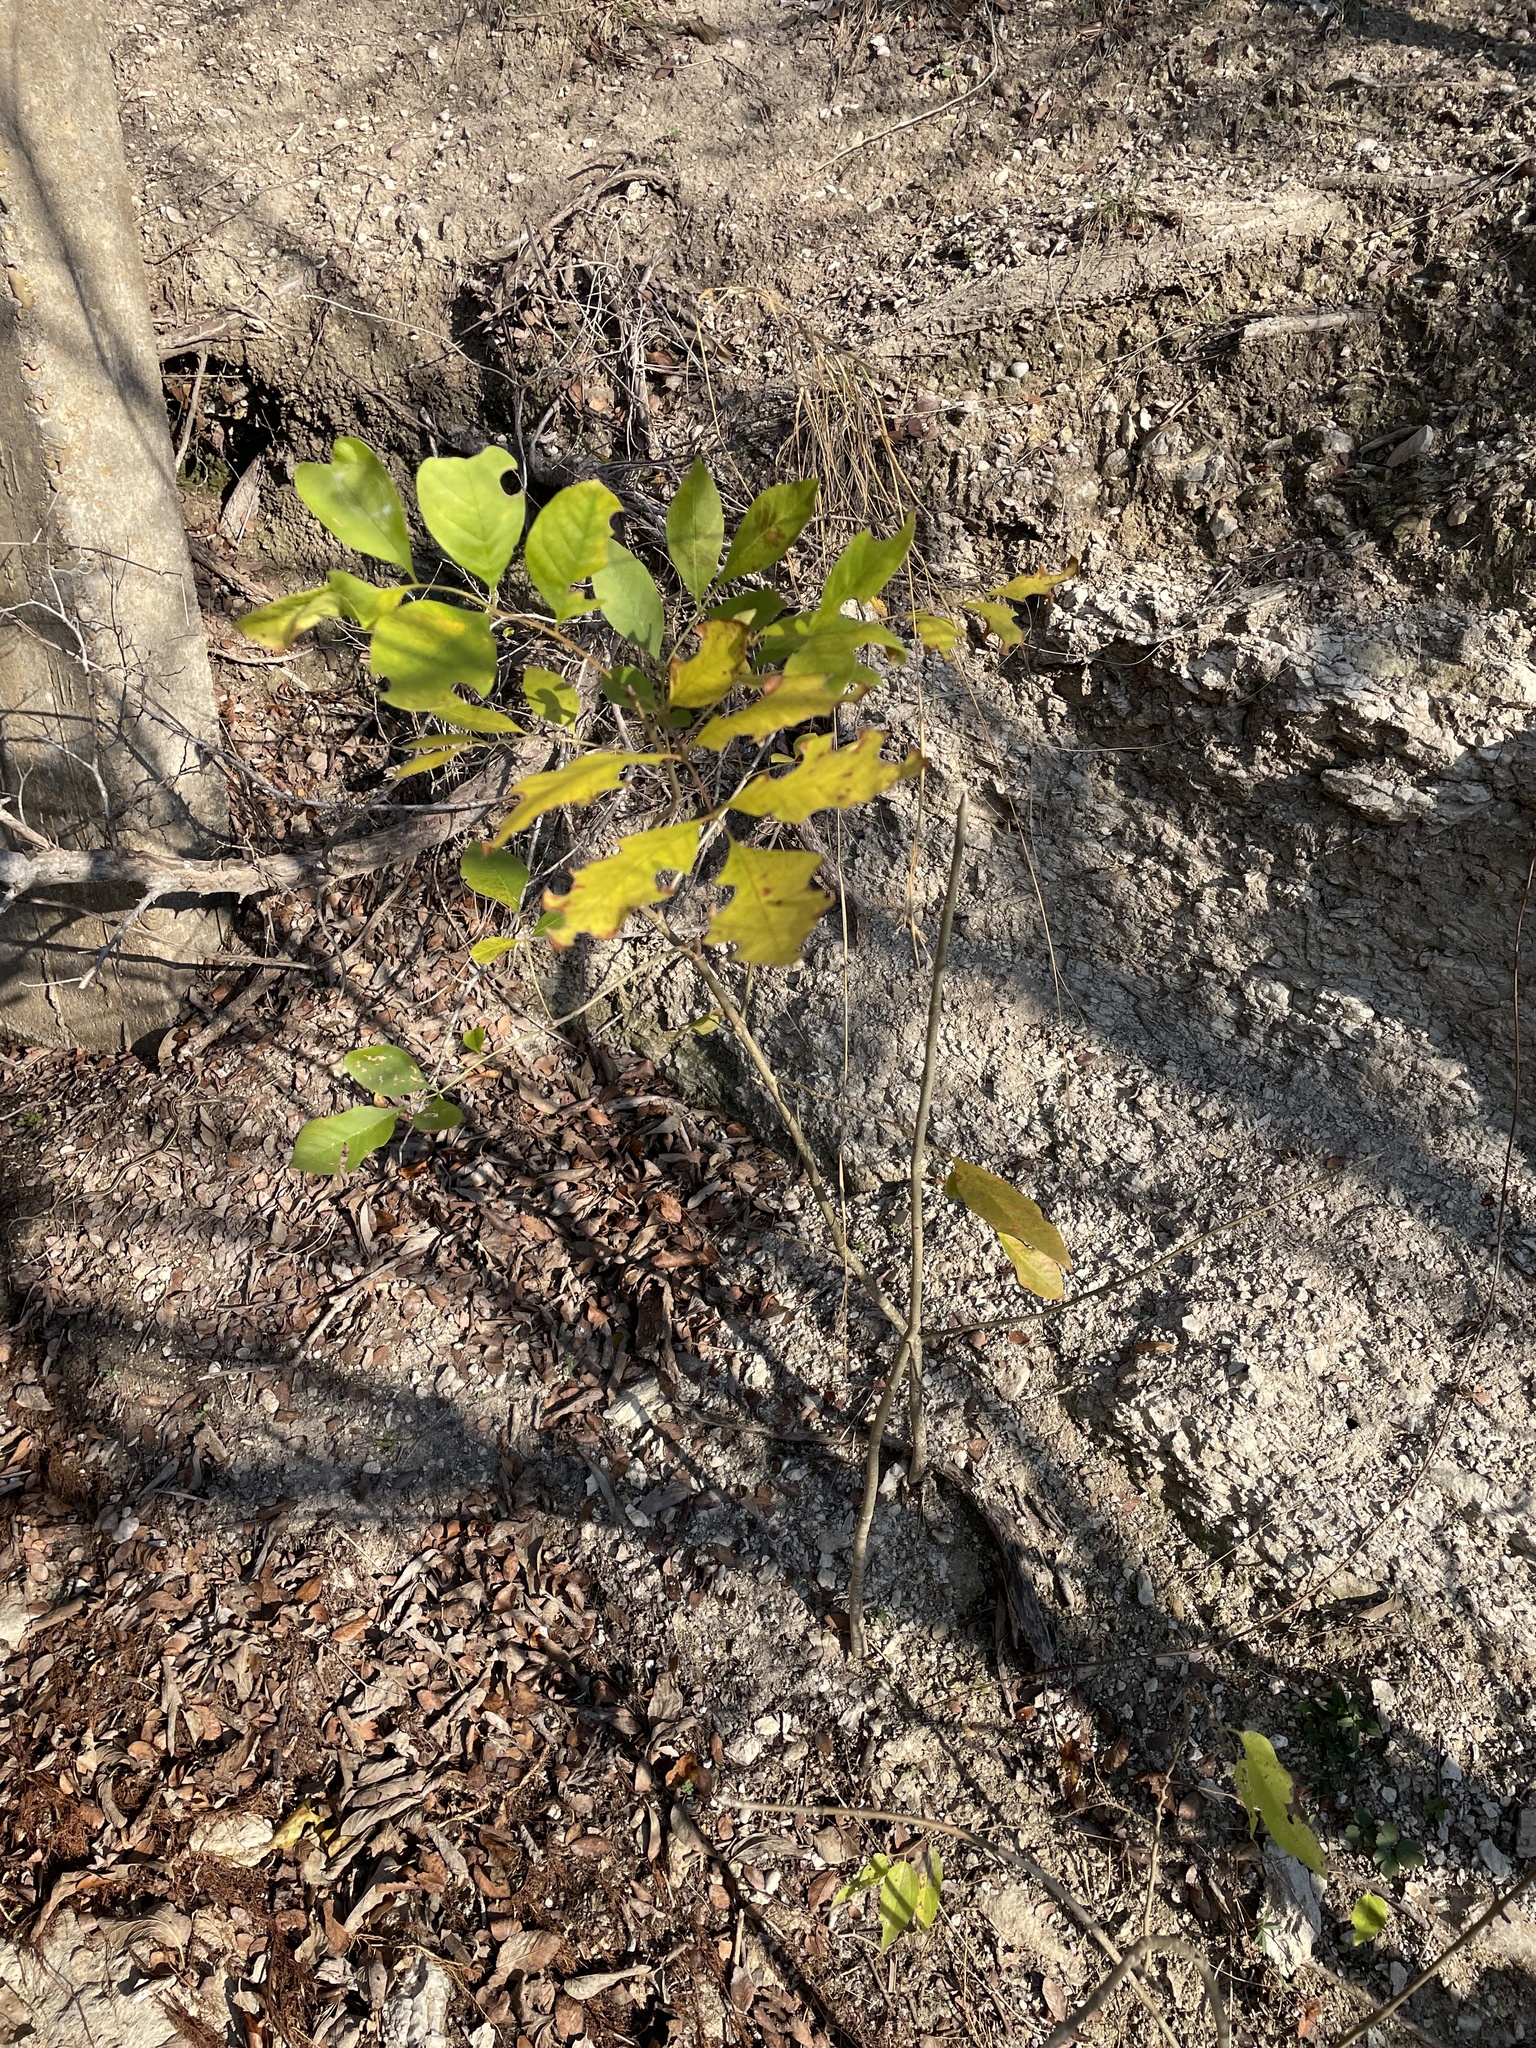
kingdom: Plantae
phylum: Tracheophyta
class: Magnoliopsida
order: Lamiales
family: Oleaceae
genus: Fraxinus
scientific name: Fraxinus pennsylvanica
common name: Green ash
